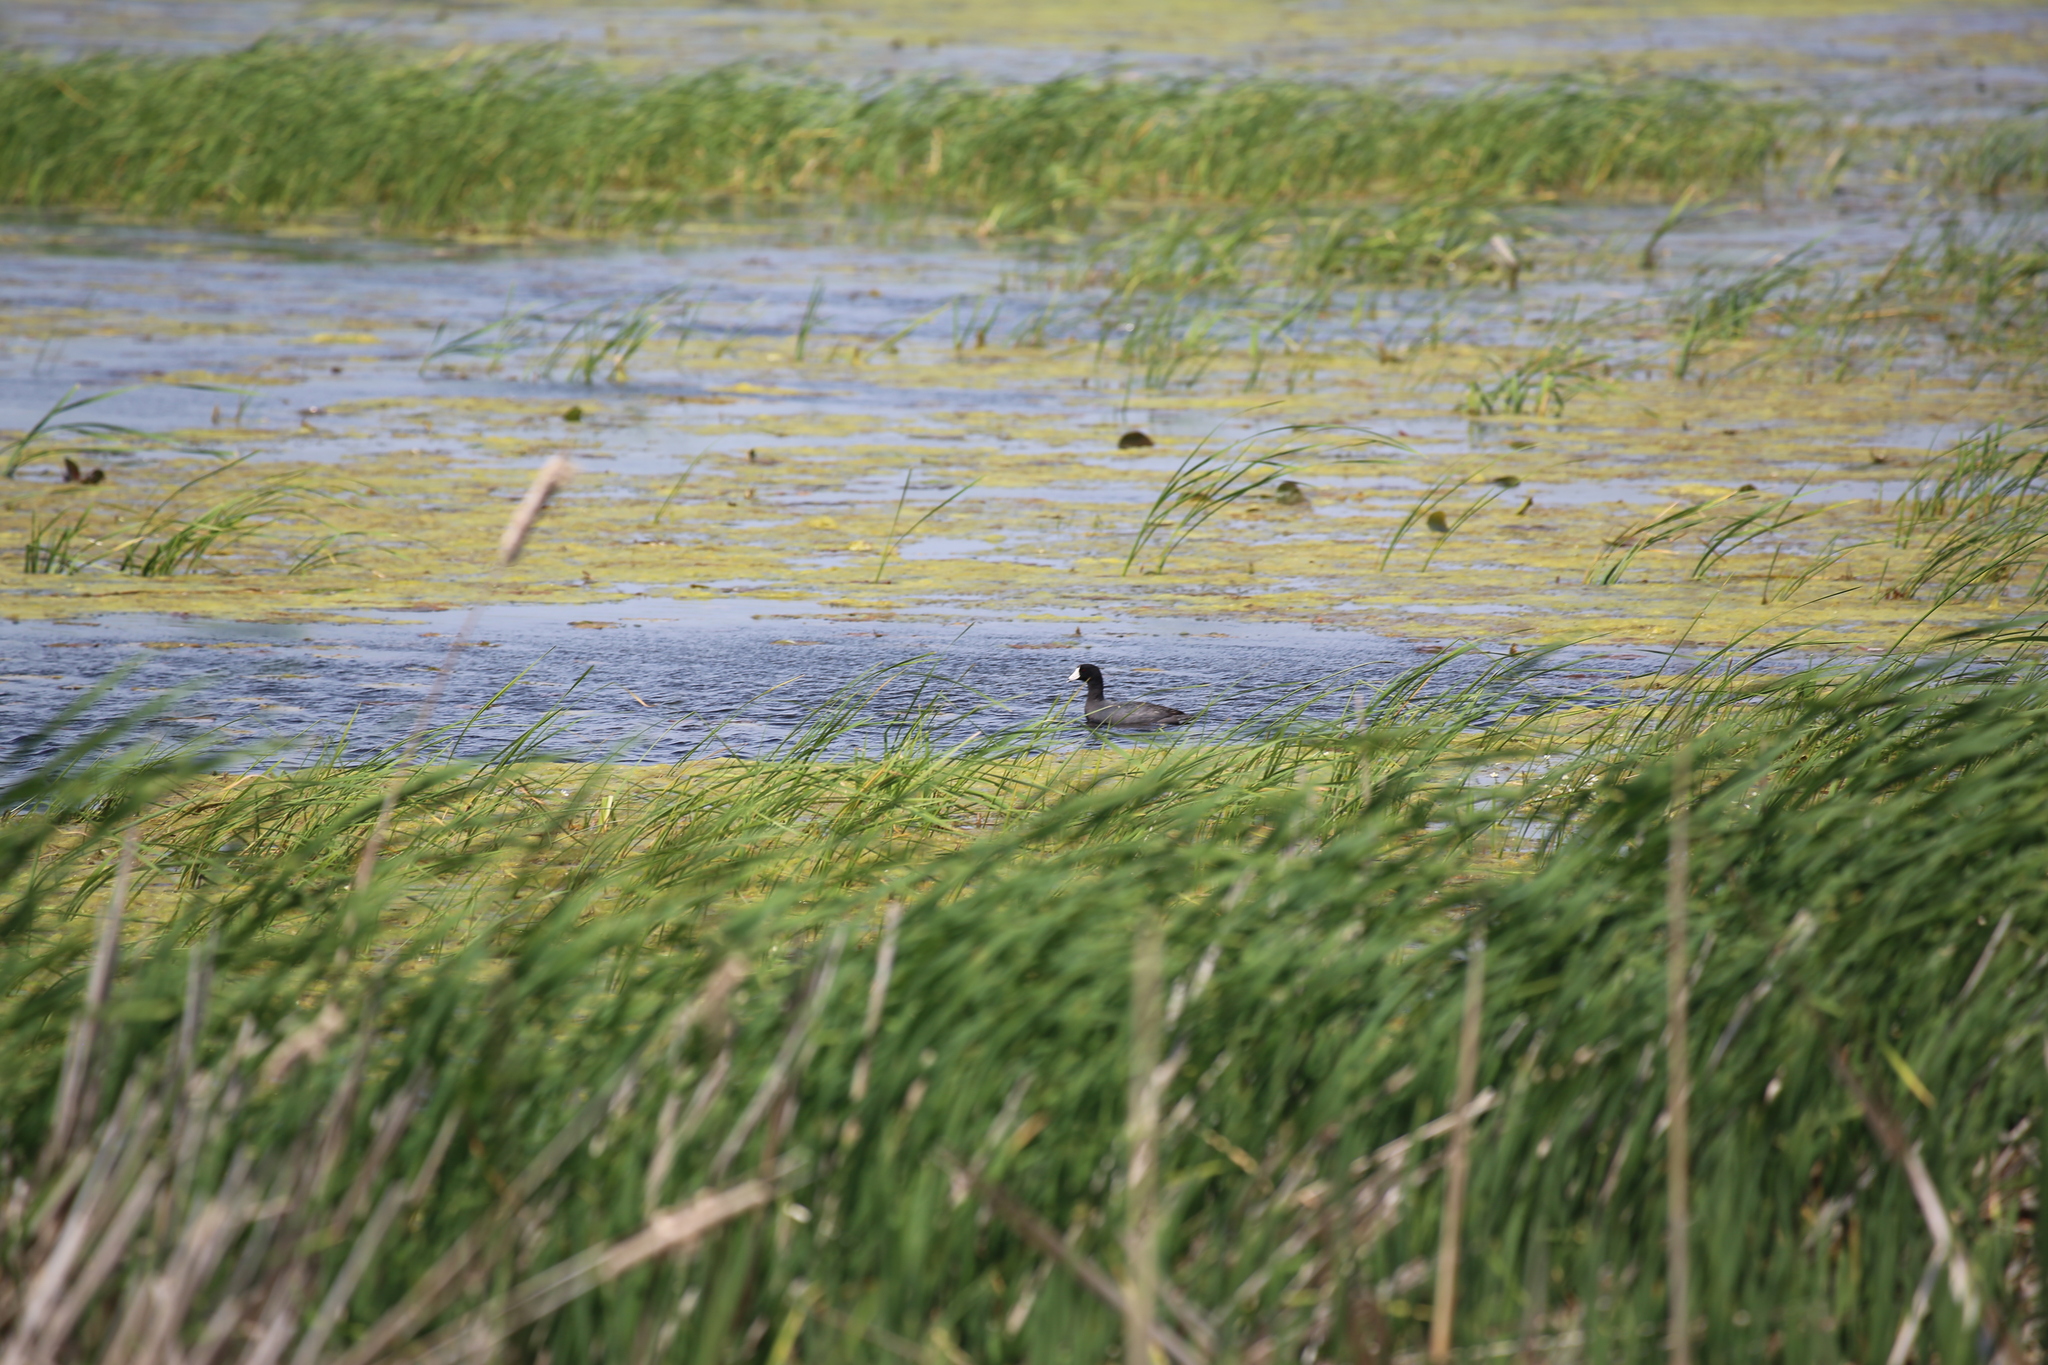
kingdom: Animalia
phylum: Chordata
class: Aves
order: Gruiformes
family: Rallidae
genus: Fulica
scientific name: Fulica americana
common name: American coot
